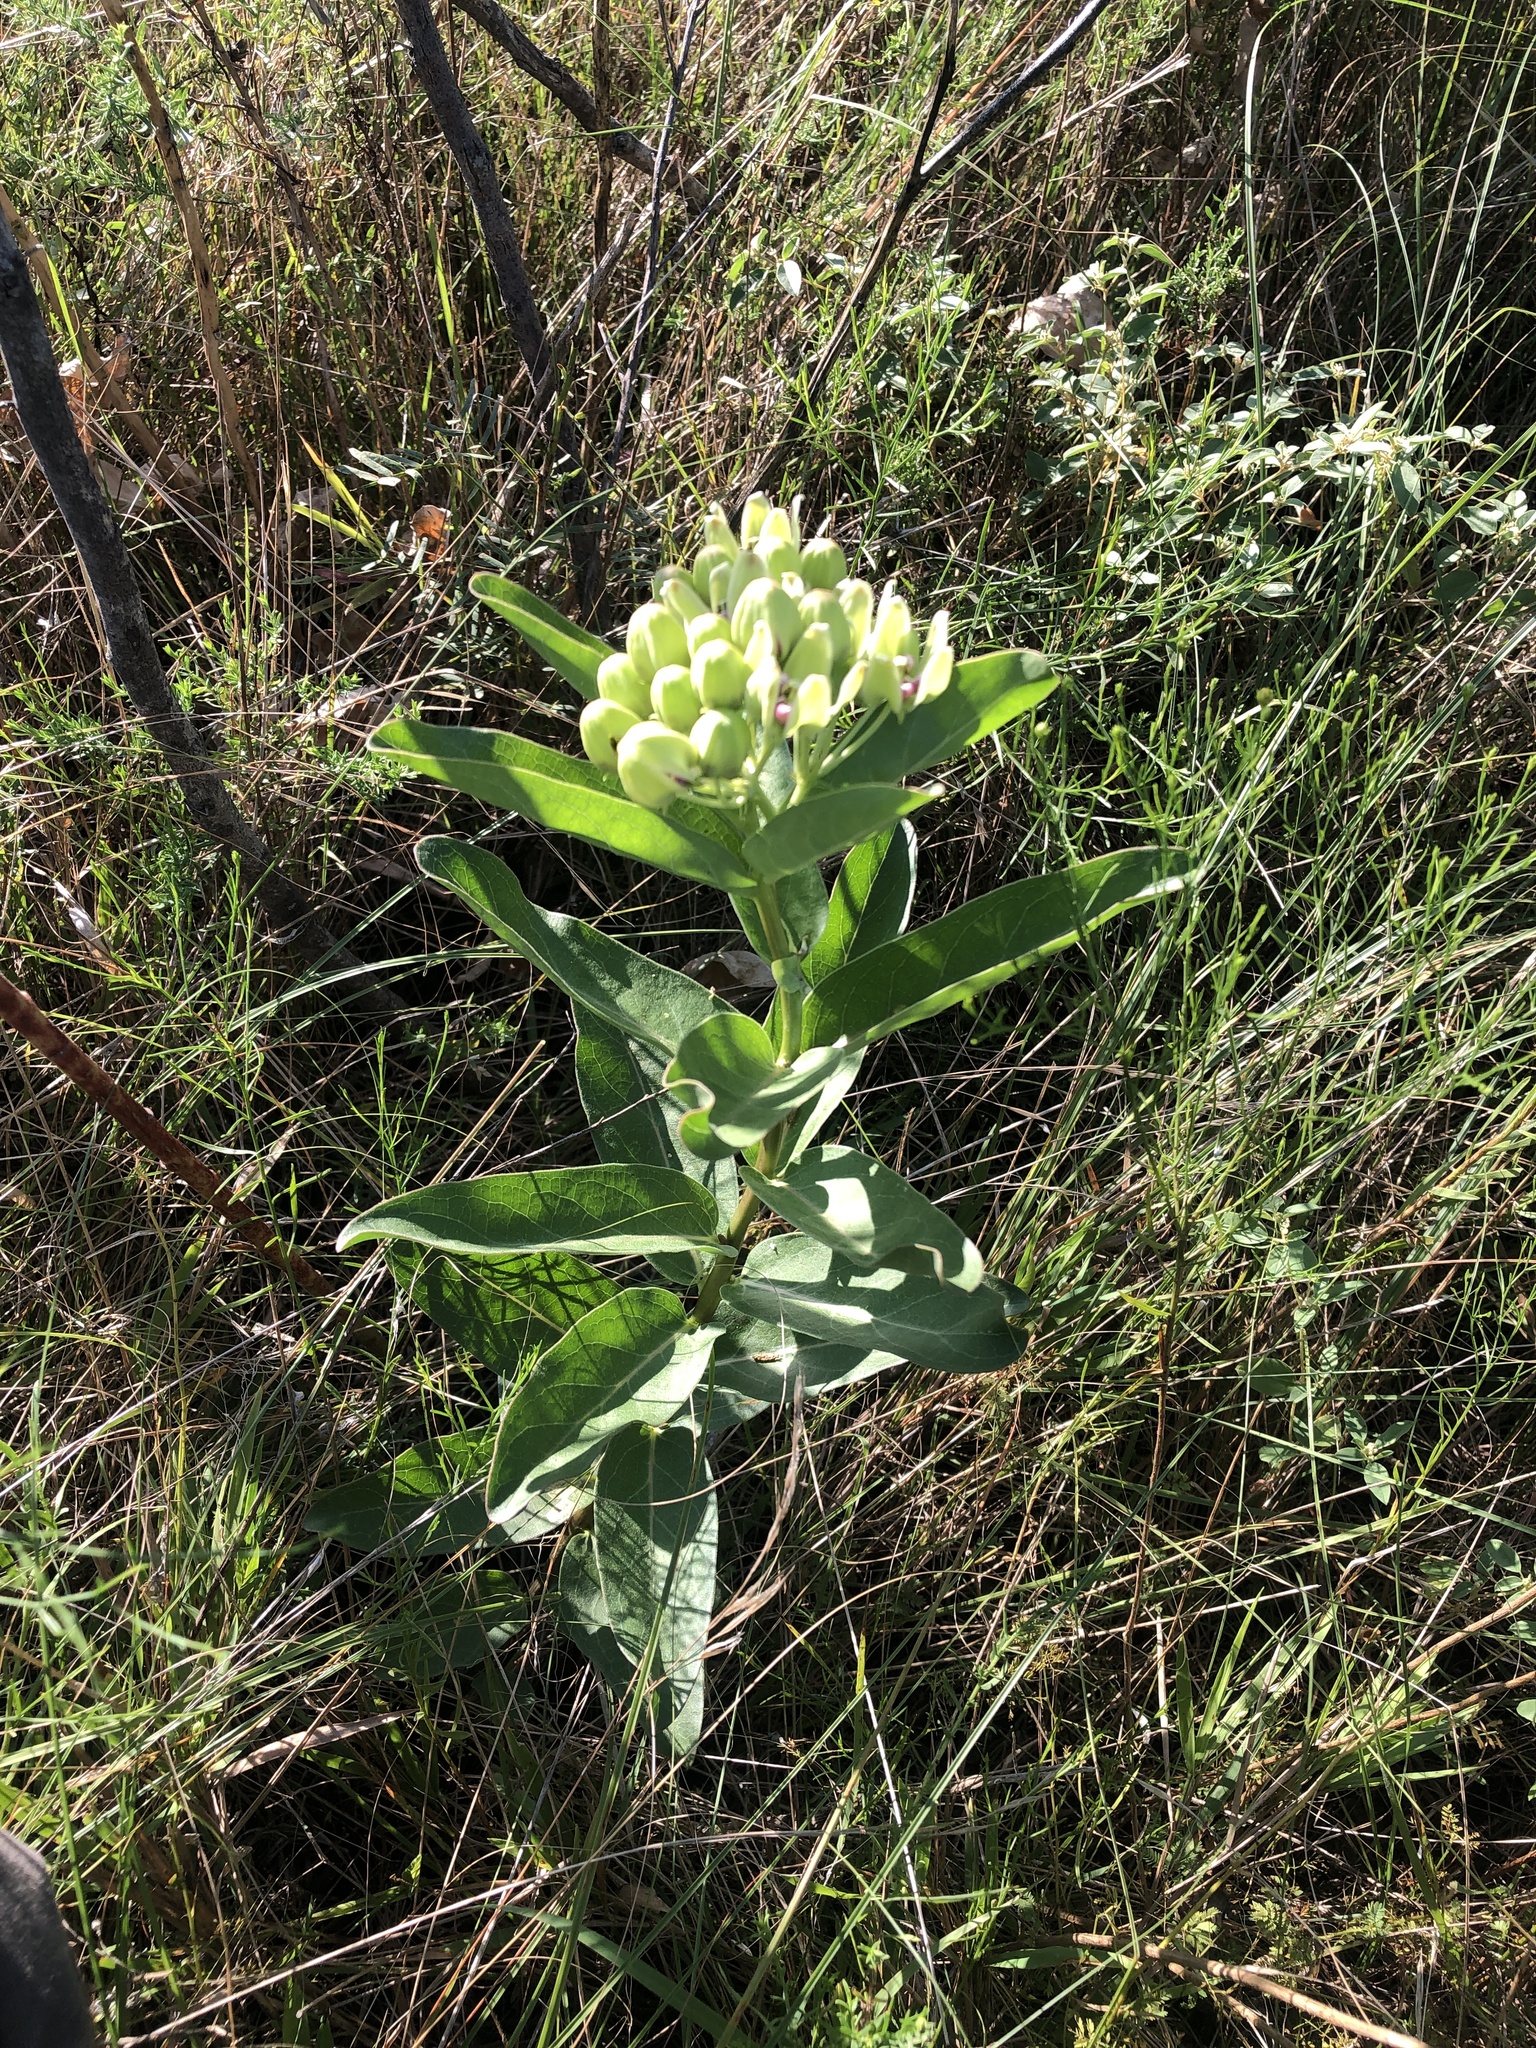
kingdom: Plantae
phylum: Tracheophyta
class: Magnoliopsida
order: Gentianales
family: Apocynaceae
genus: Asclepias
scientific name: Asclepias viridis
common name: Antelope-horns
